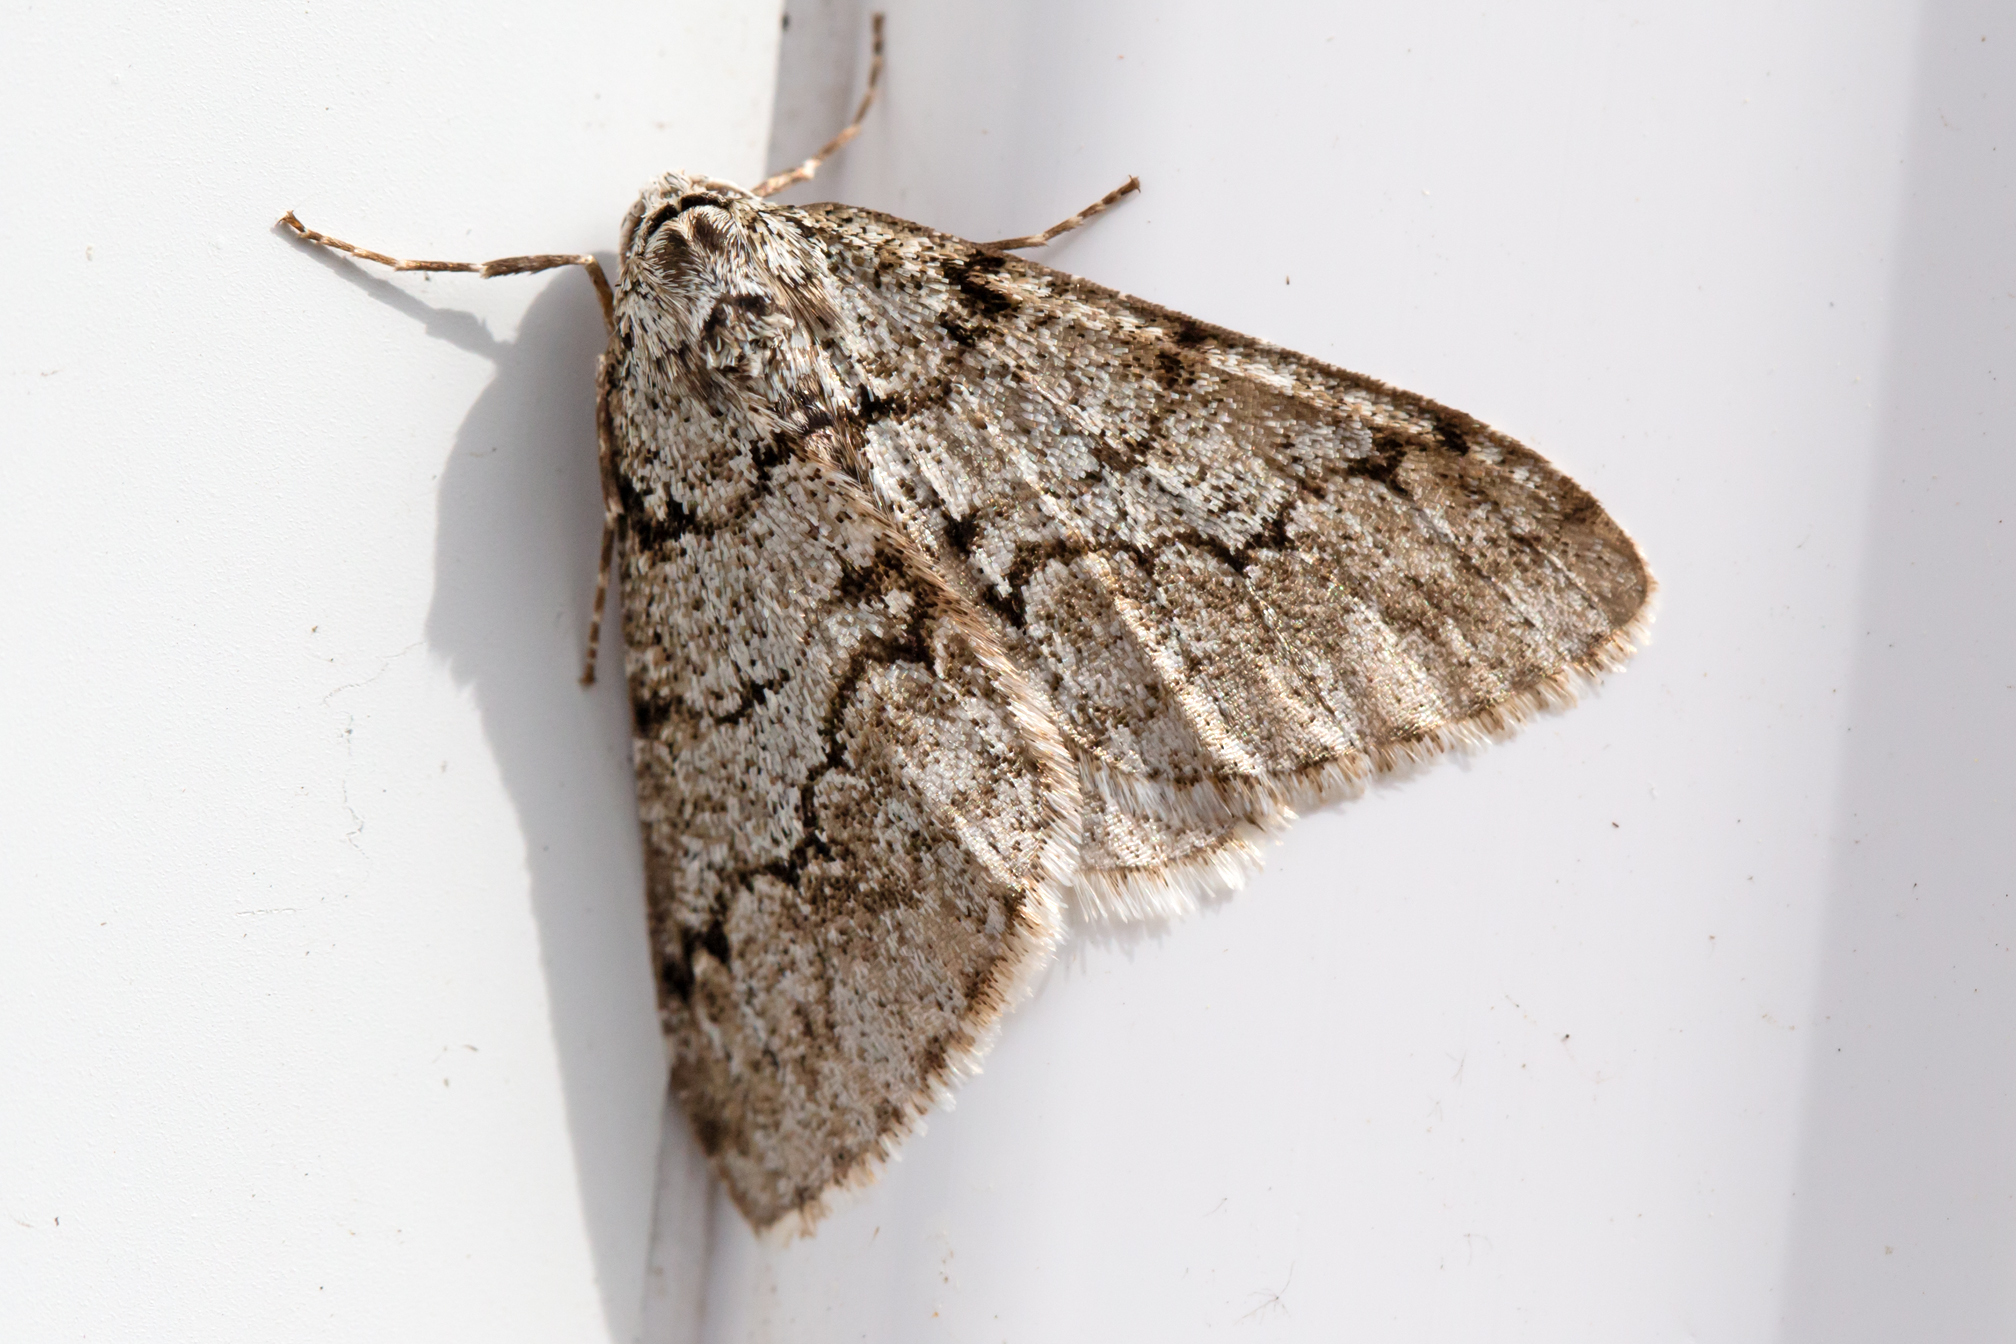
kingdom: Animalia
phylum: Arthropoda
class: Insecta
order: Lepidoptera
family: Geometridae
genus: Phigalia
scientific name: Phigalia strigataria
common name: Small phigalia
